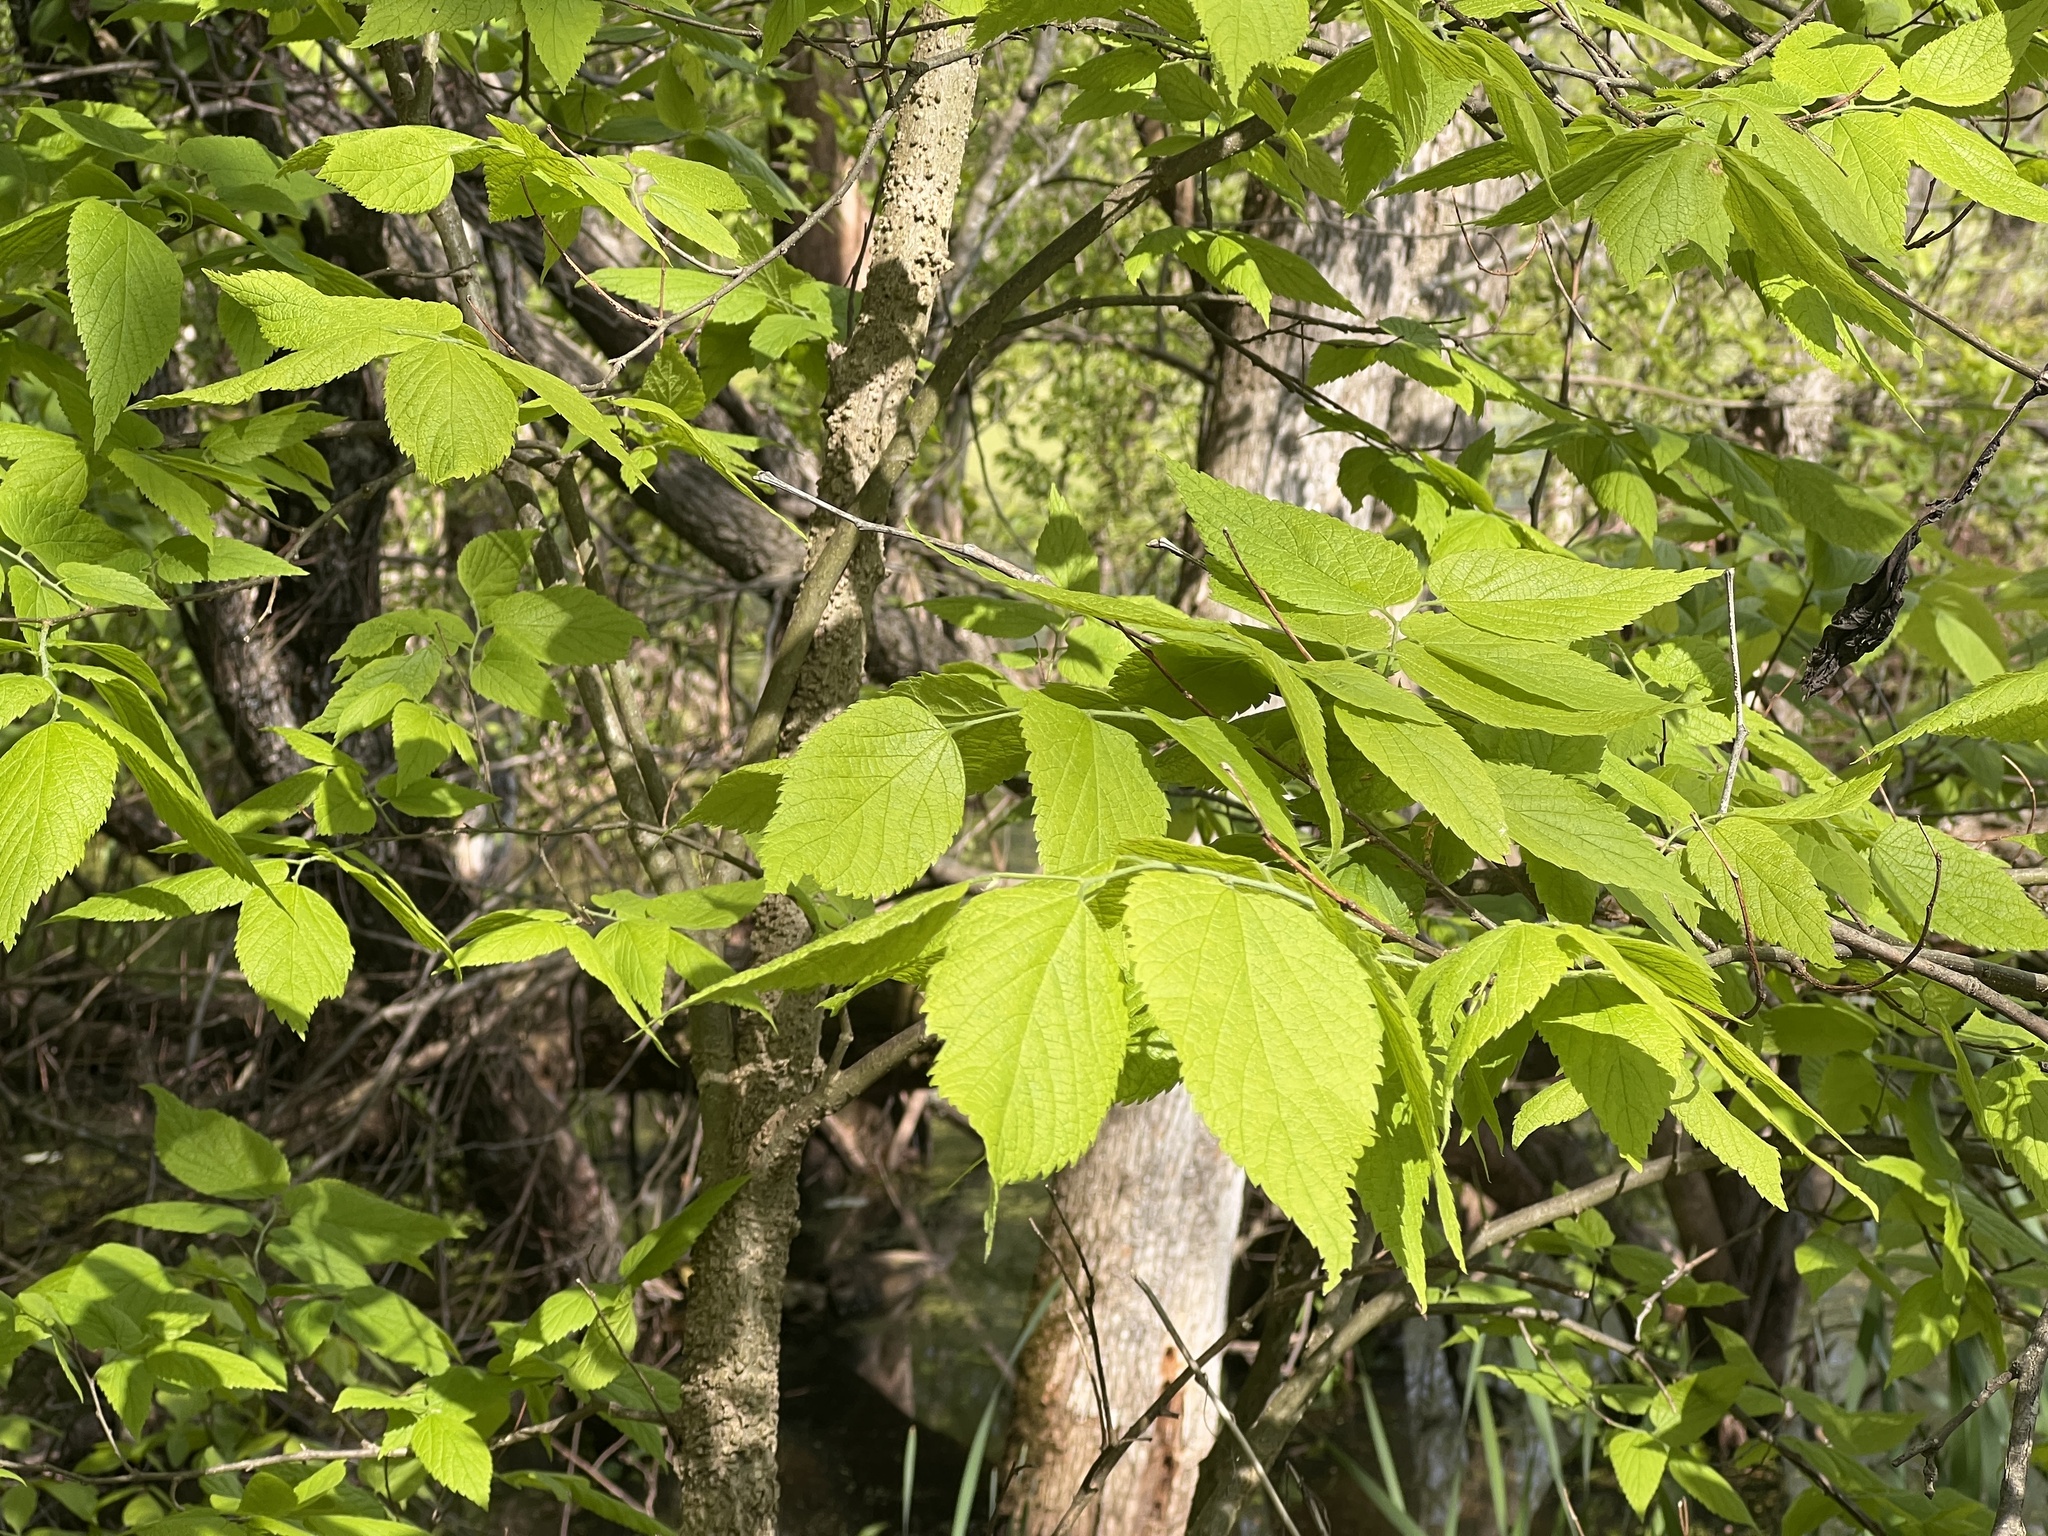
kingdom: Plantae
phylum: Tracheophyta
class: Magnoliopsida
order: Rosales
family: Cannabaceae
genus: Celtis
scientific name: Celtis occidentalis
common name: Common hackberry
